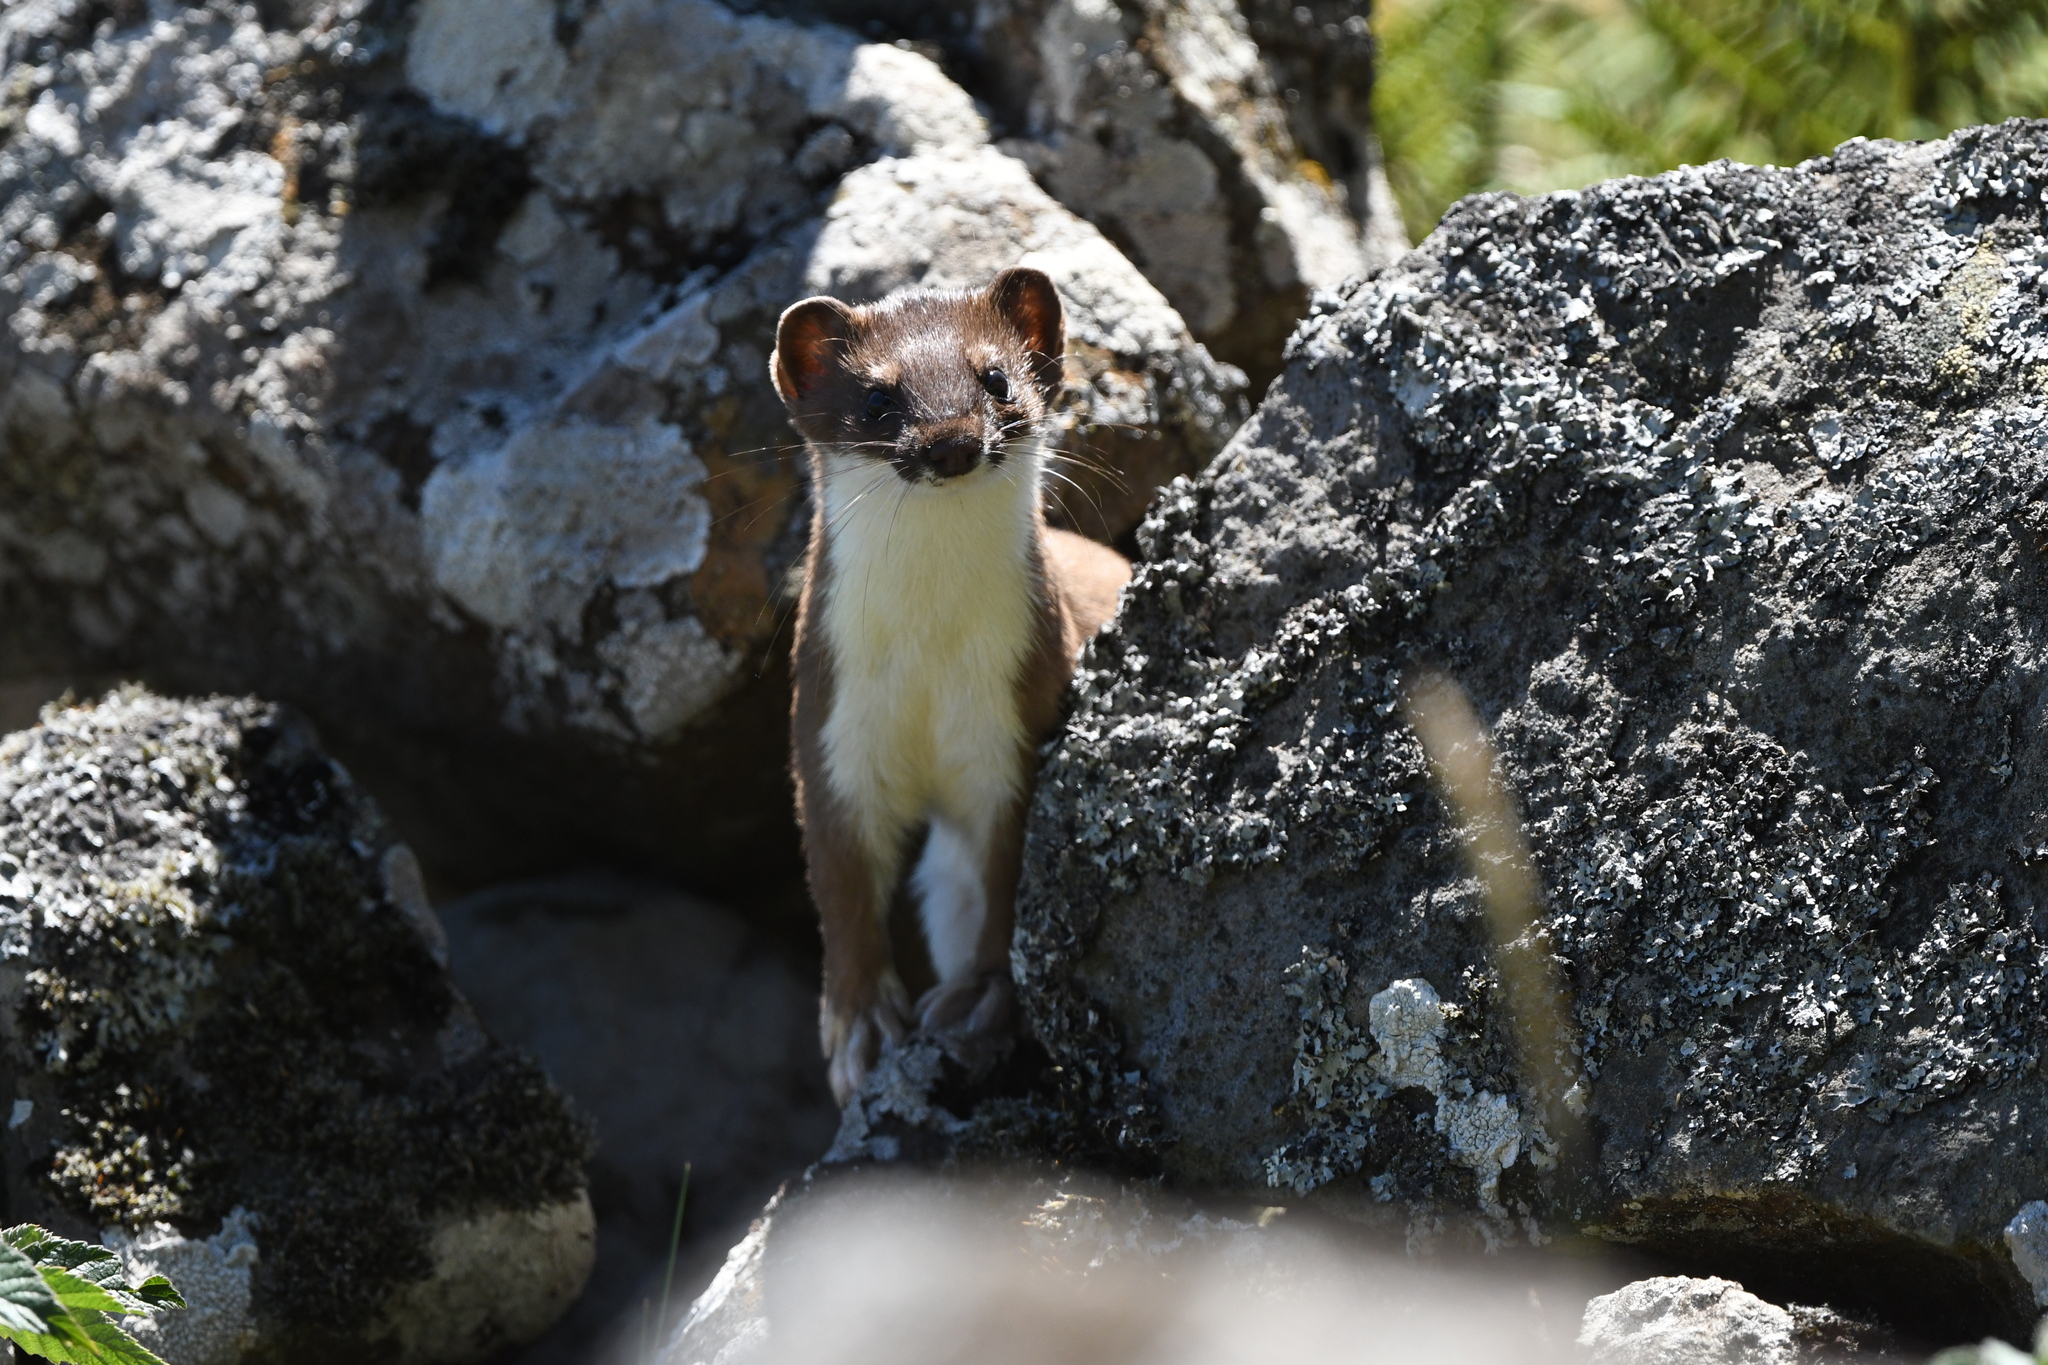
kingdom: Animalia
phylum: Chordata
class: Mammalia
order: Carnivora
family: Mustelidae
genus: Mustela
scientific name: Mustela erminea
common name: Stoat
